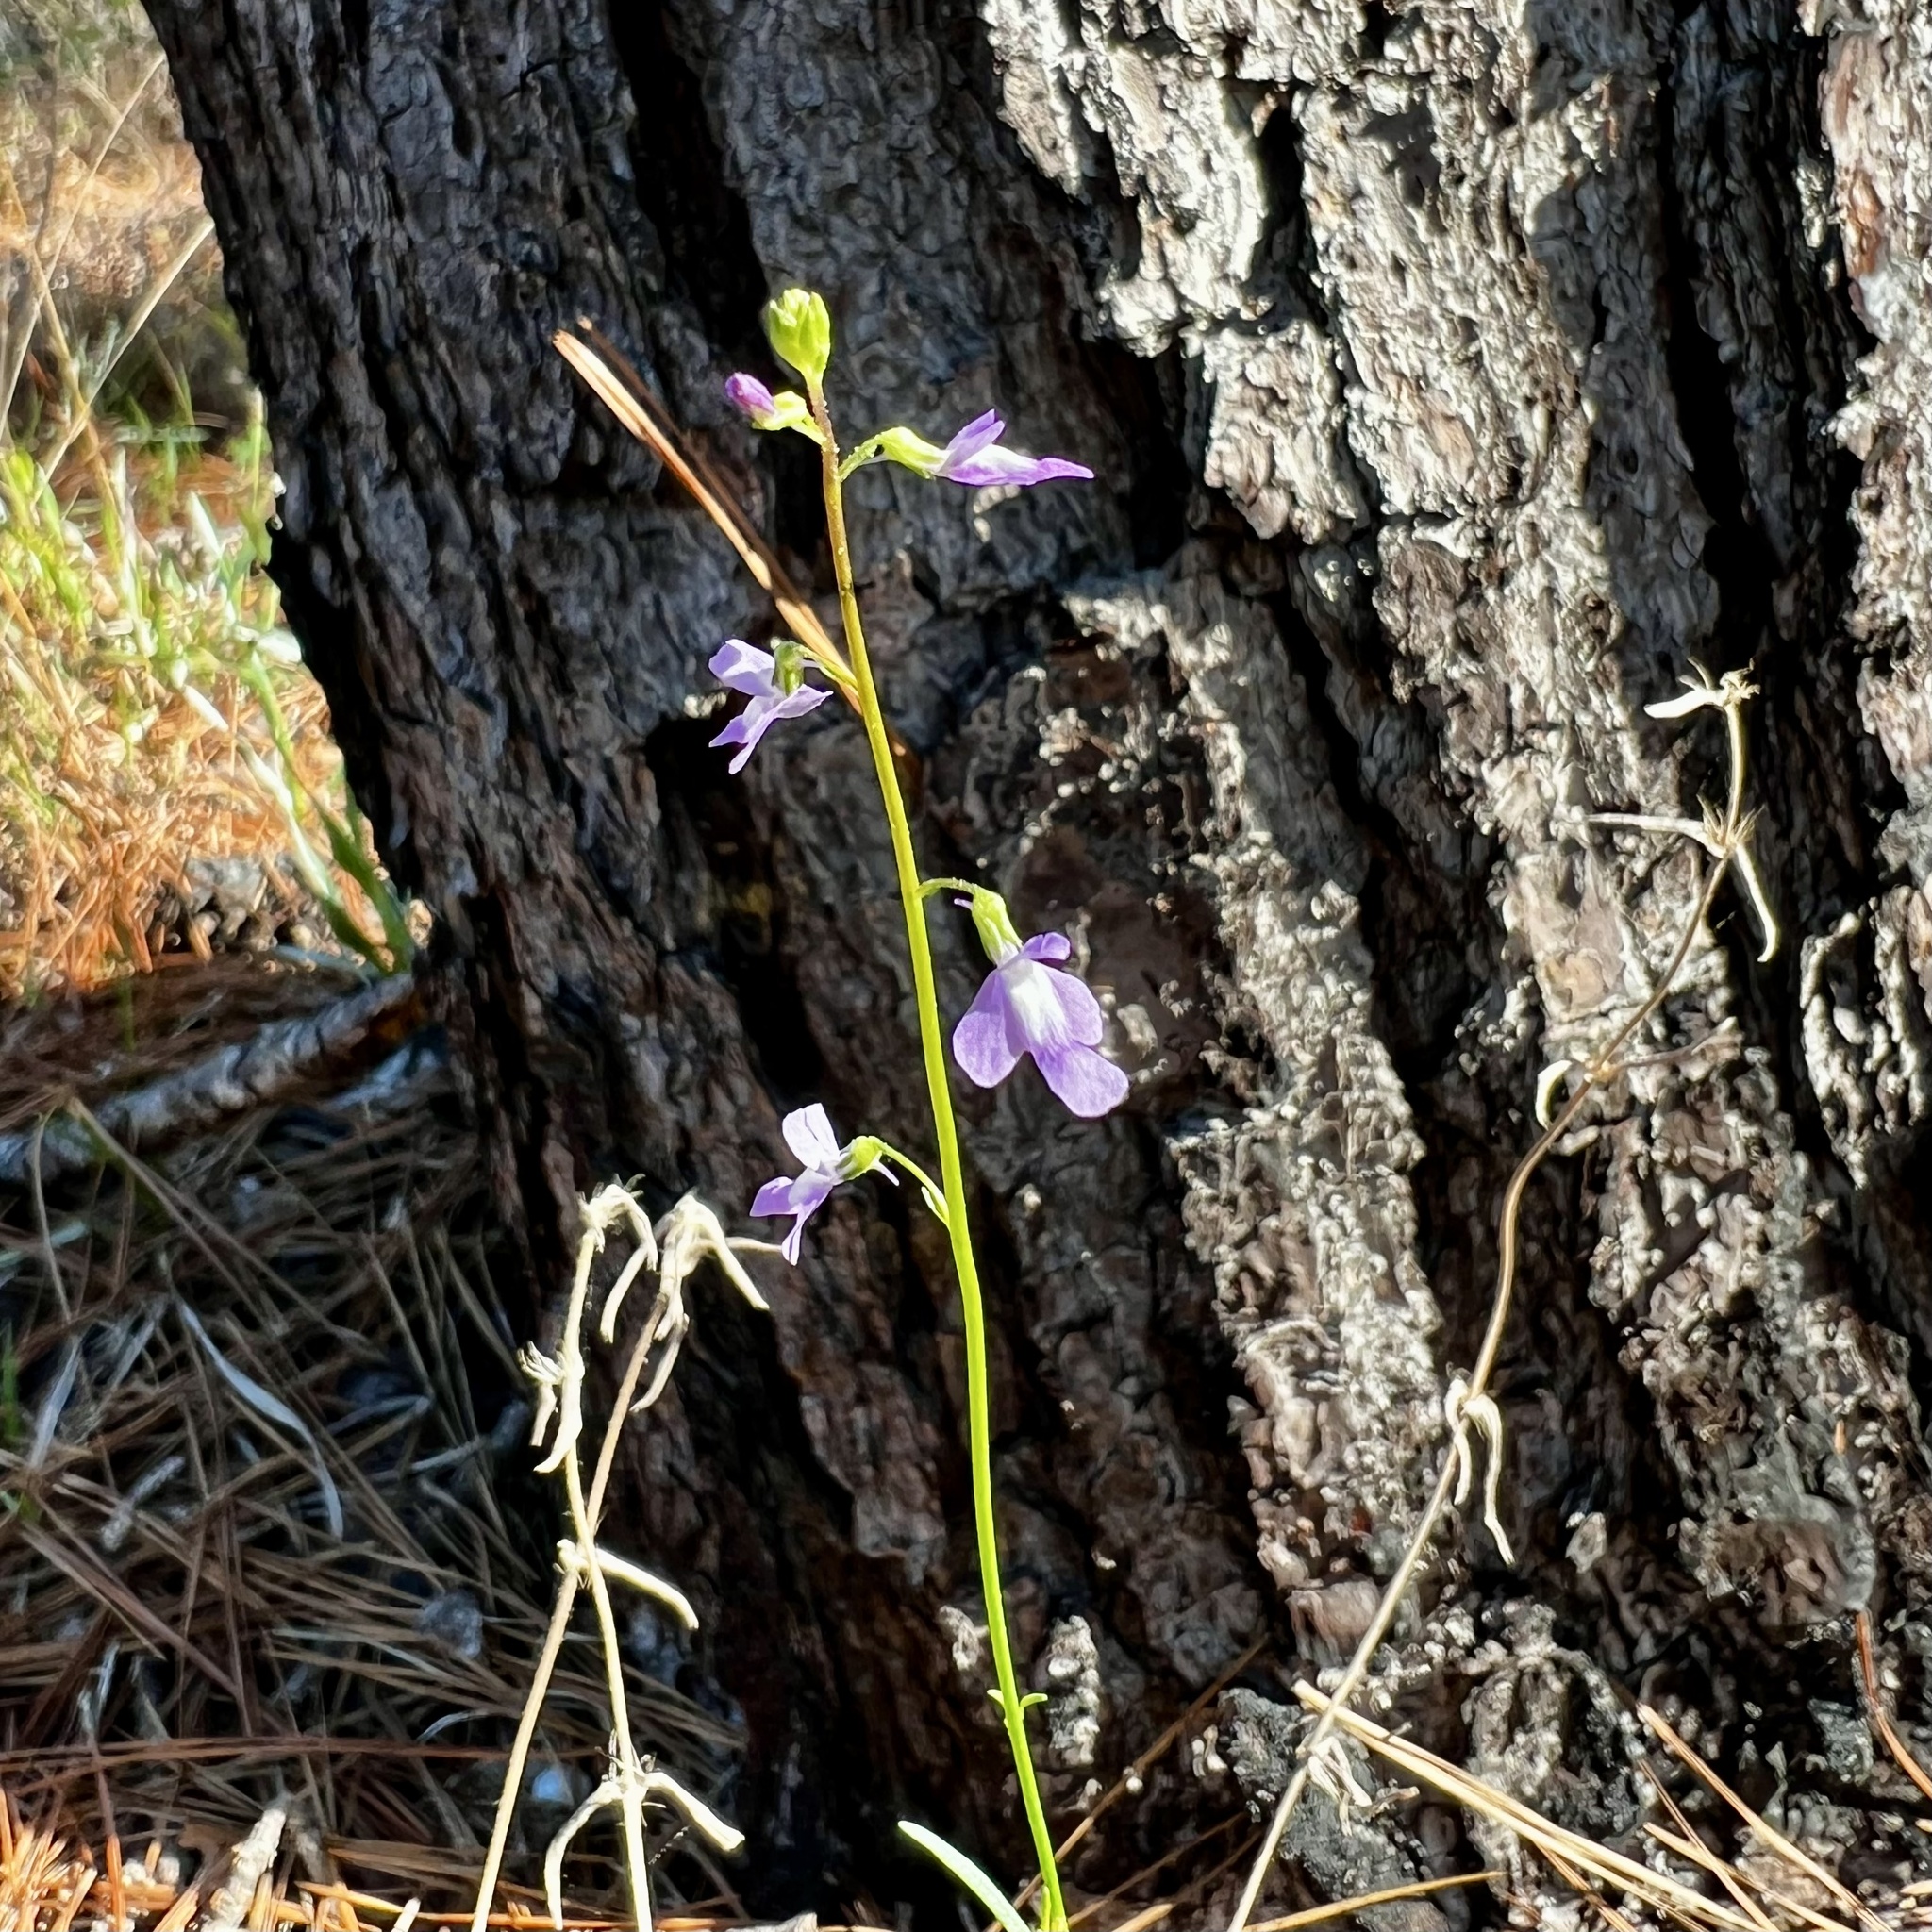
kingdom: Plantae
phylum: Tracheophyta
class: Magnoliopsida
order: Lamiales
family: Plantaginaceae
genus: Nuttallanthus
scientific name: Nuttallanthus texanus
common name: Texas toadflax
